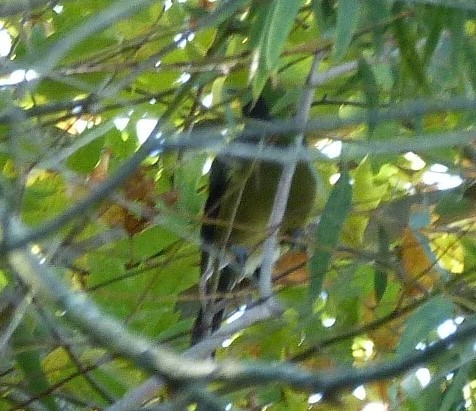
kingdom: Animalia
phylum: Chordata
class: Aves
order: Passeriformes
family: Meliphagidae
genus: Anthornis
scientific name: Anthornis melanura
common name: New zealand bellbird
